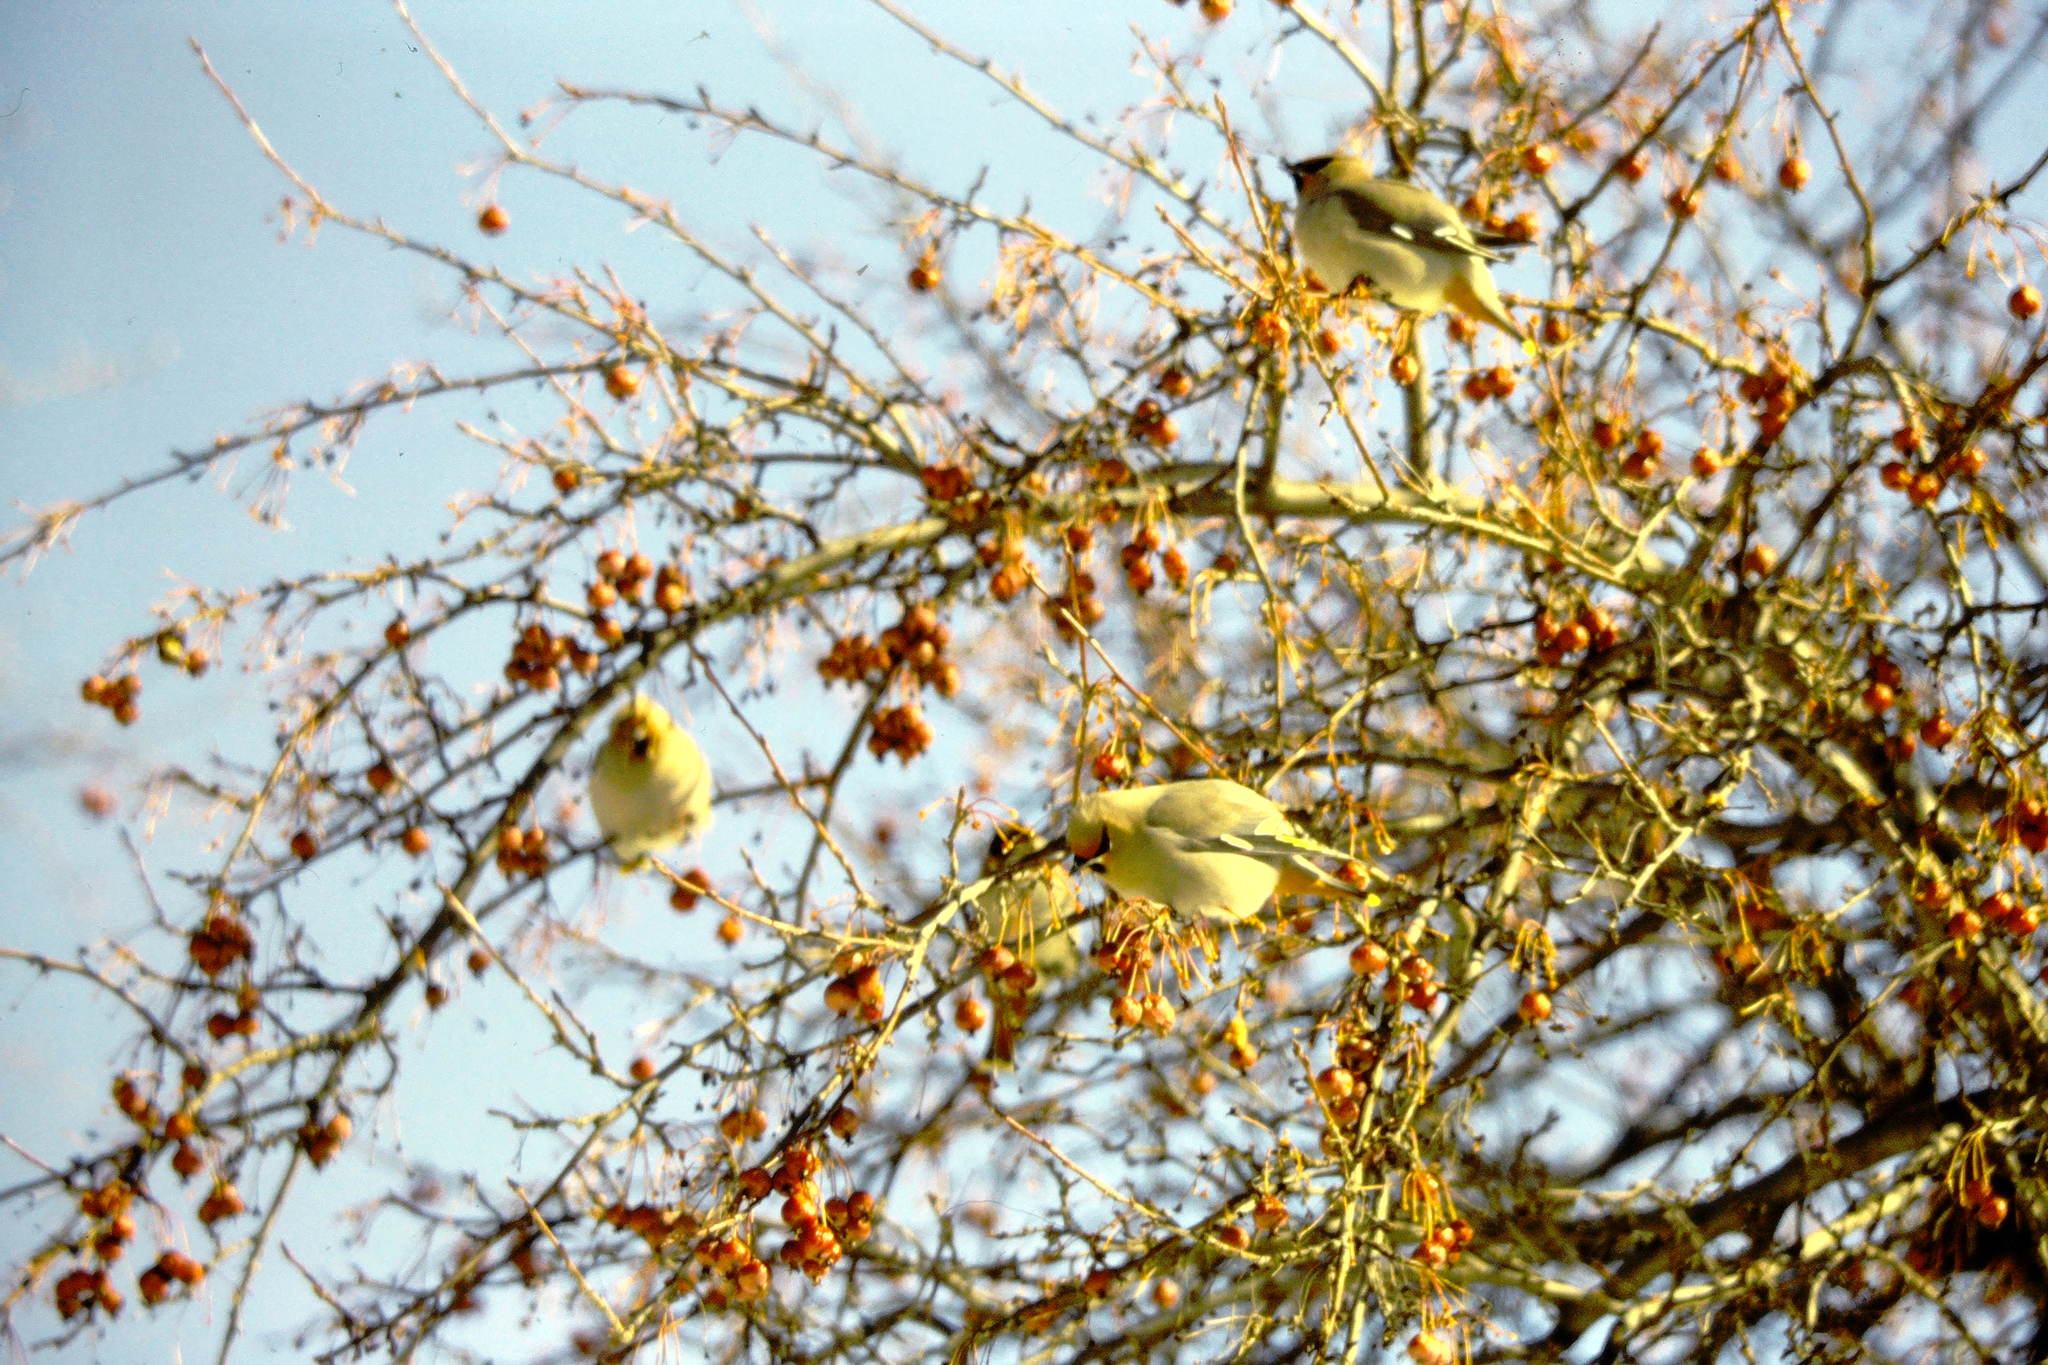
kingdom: Animalia
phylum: Chordata
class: Aves
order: Passeriformes
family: Bombycillidae
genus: Bombycilla
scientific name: Bombycilla garrulus
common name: Bohemian waxwing
